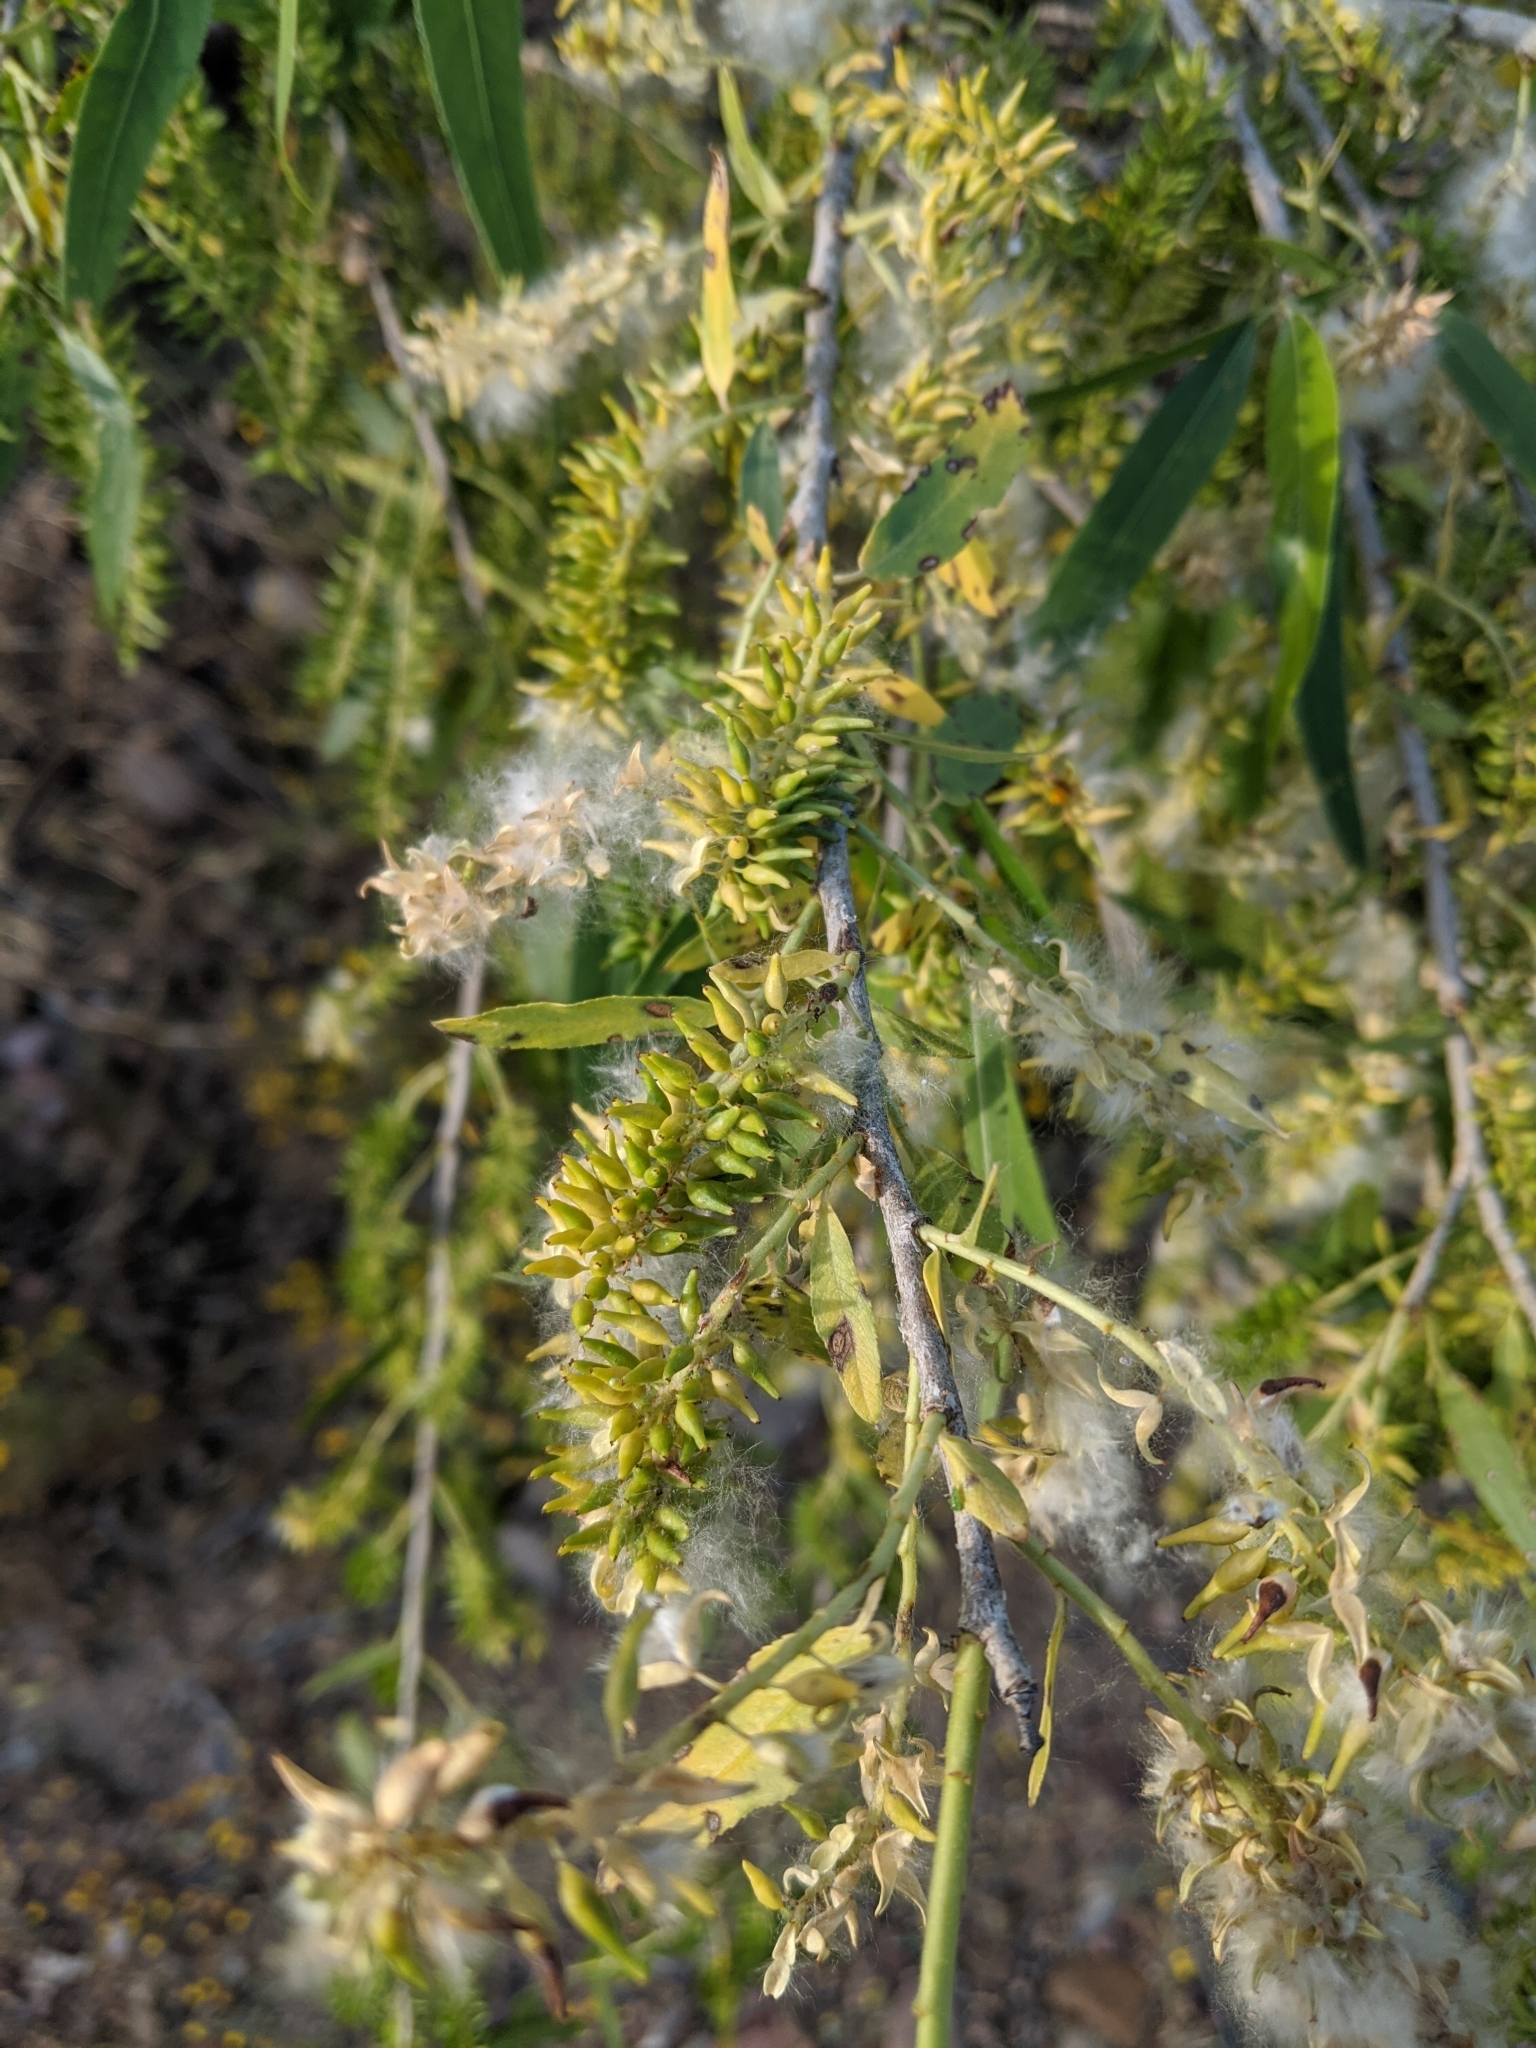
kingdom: Plantae
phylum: Tracheophyta
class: Magnoliopsida
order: Malpighiales
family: Salicaceae
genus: Salix
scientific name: Salix gooddingii
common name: Goodding's willow
